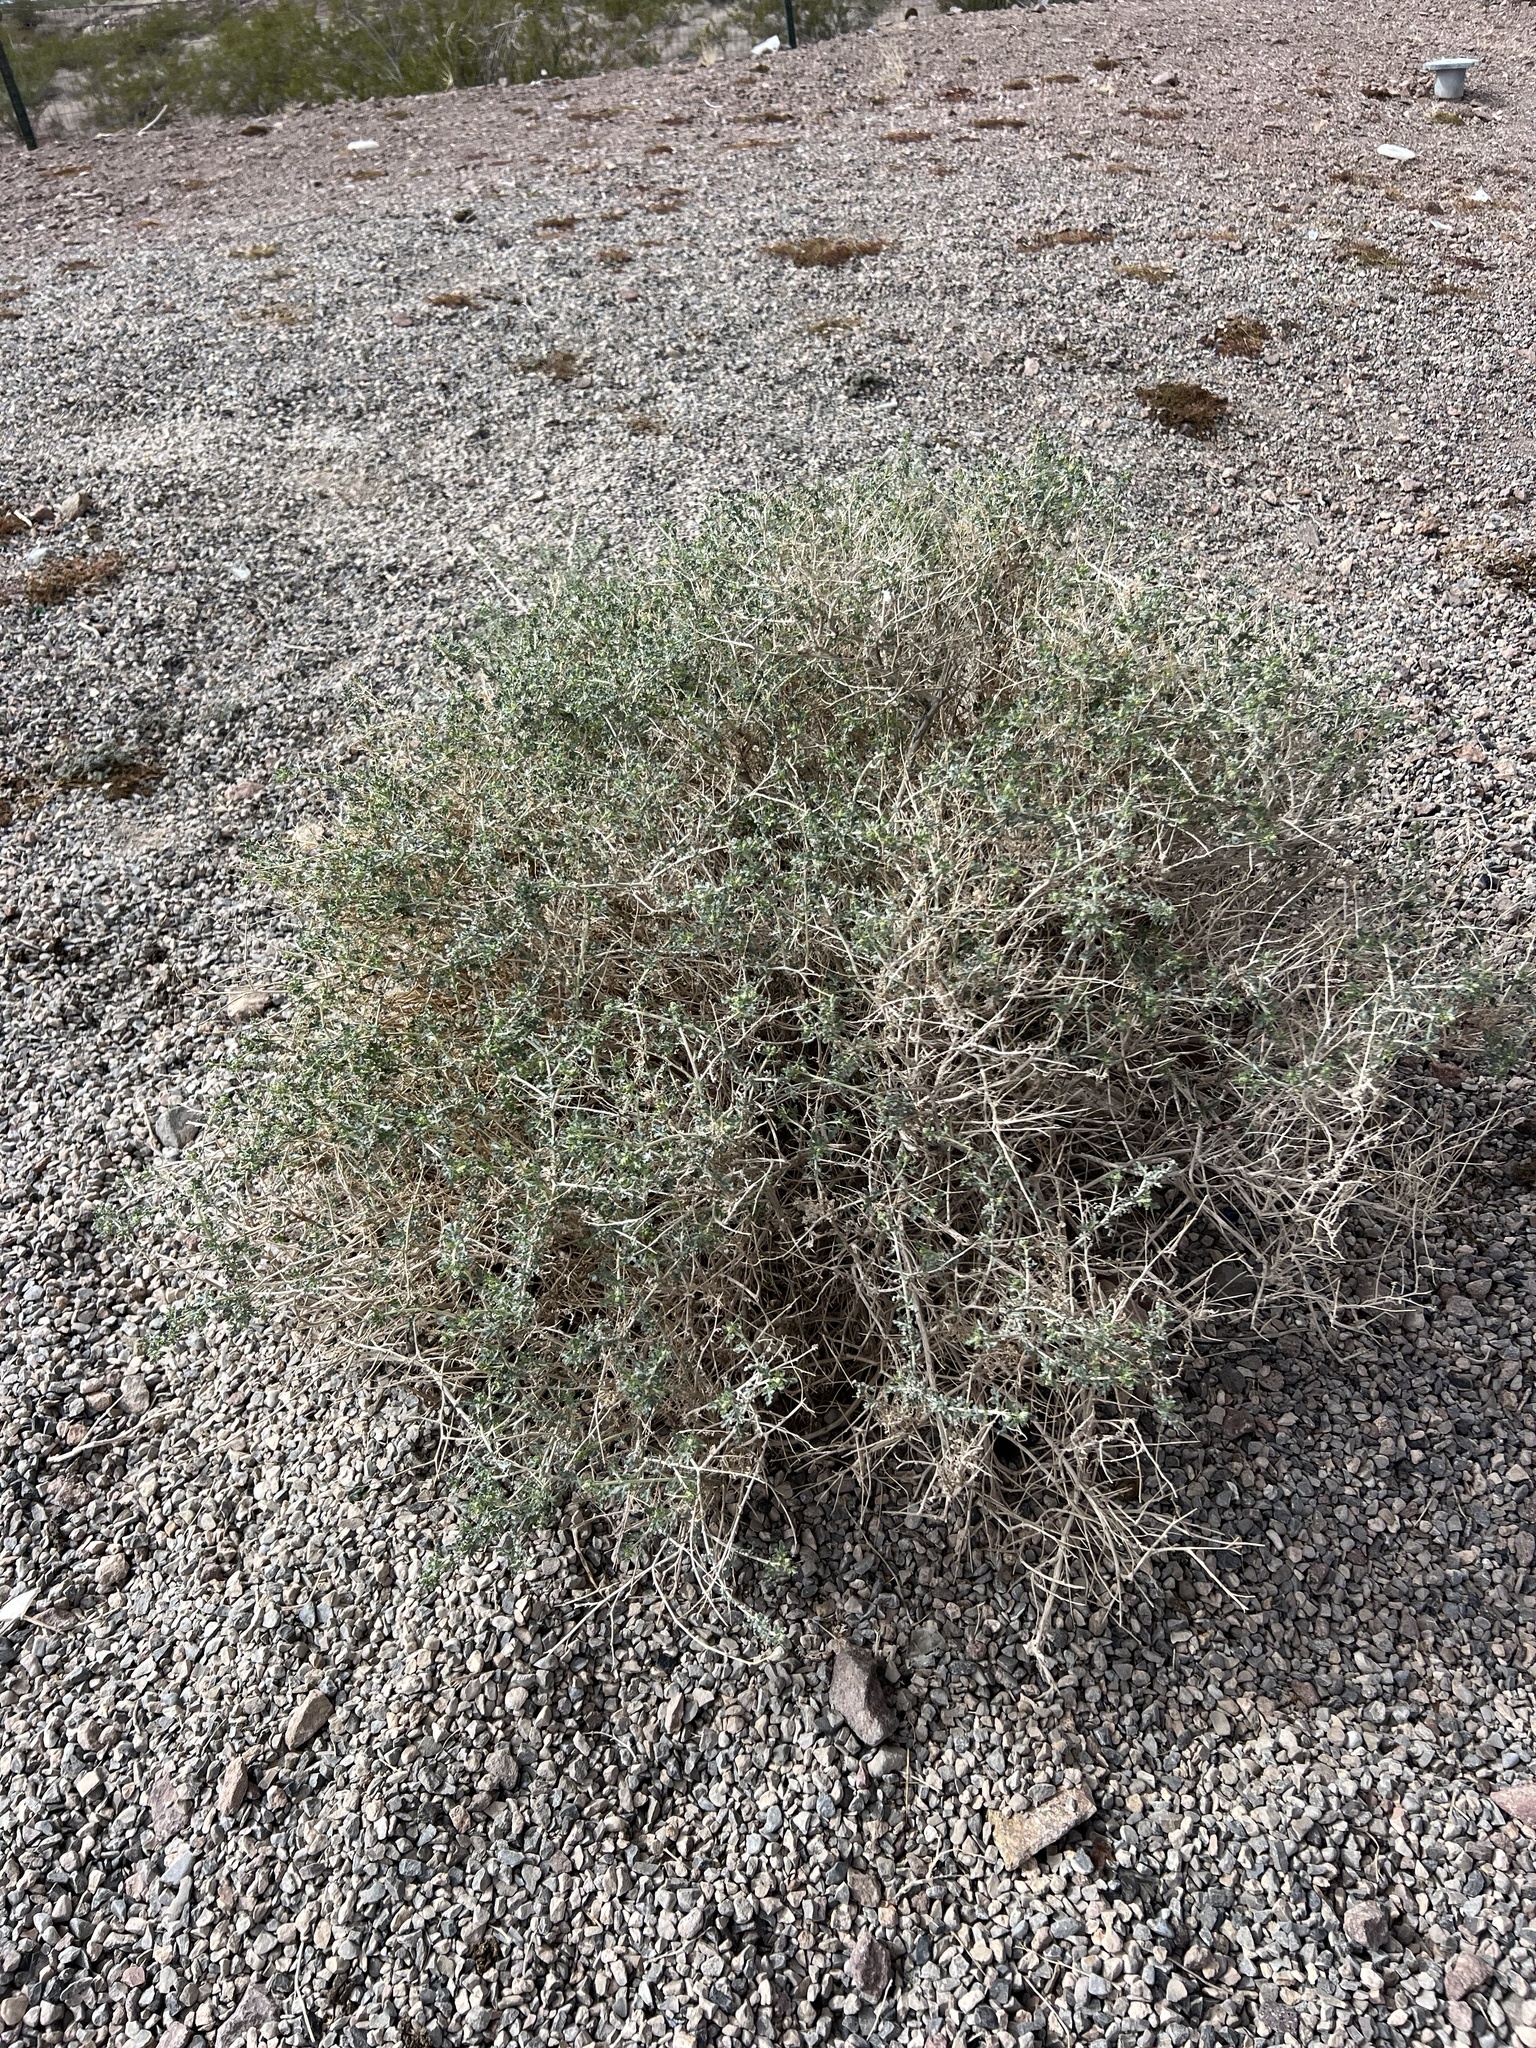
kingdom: Plantae
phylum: Tracheophyta
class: Magnoliopsida
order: Asterales
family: Asteraceae
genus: Ambrosia
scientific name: Ambrosia dumosa
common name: Bur-sage
